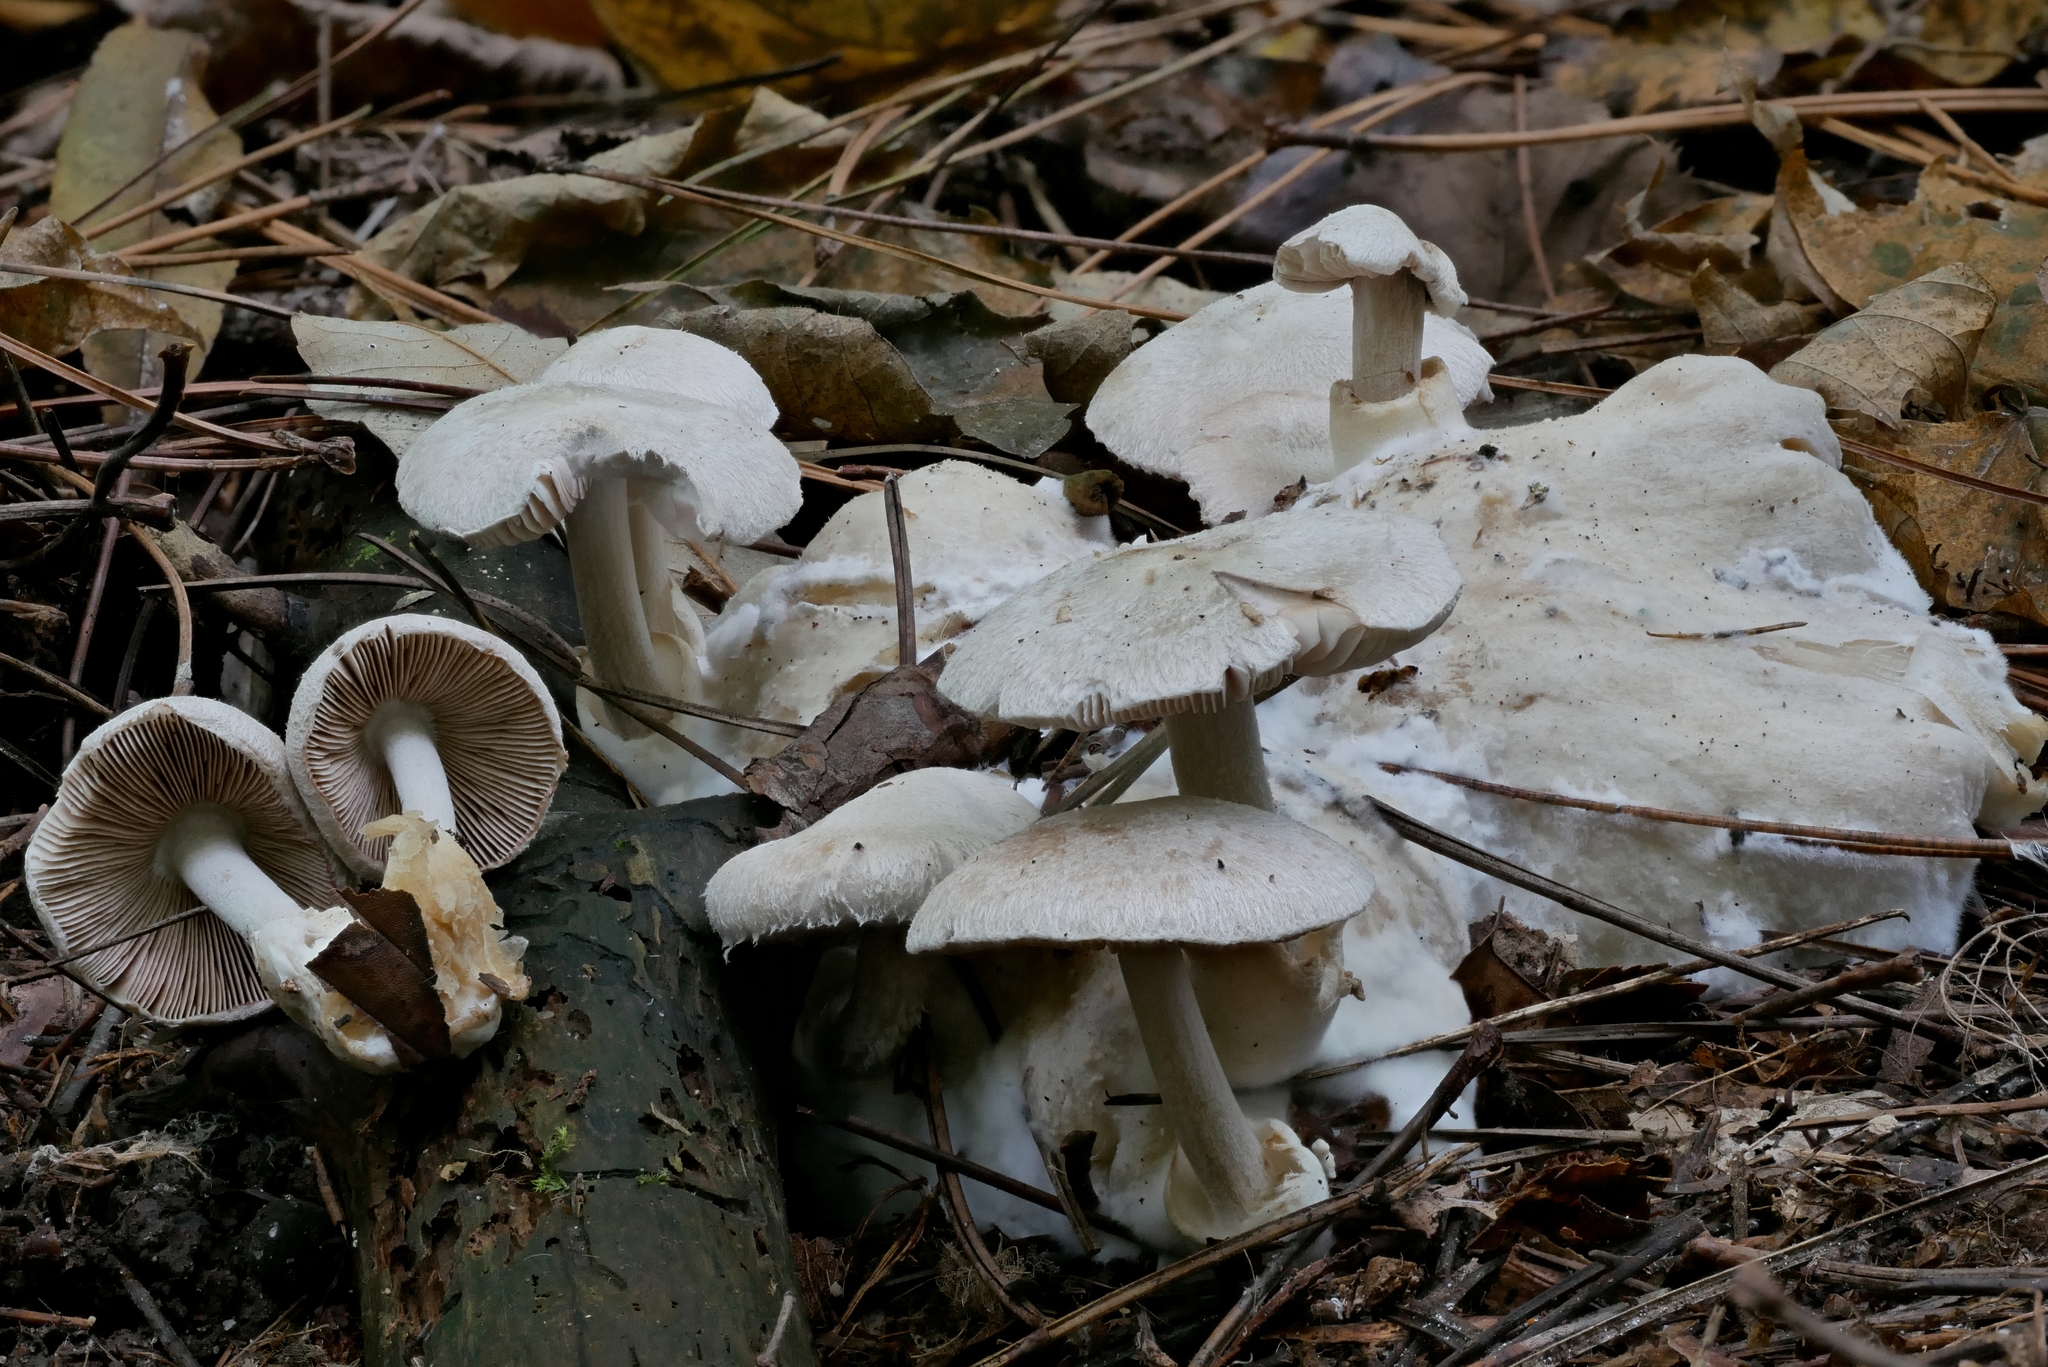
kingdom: Fungi
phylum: Basidiomycota
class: Agaricomycetes
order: Agaricales
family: Pluteaceae
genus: Volvariella
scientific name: Volvariella surrecta
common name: Piggyback rosegill
